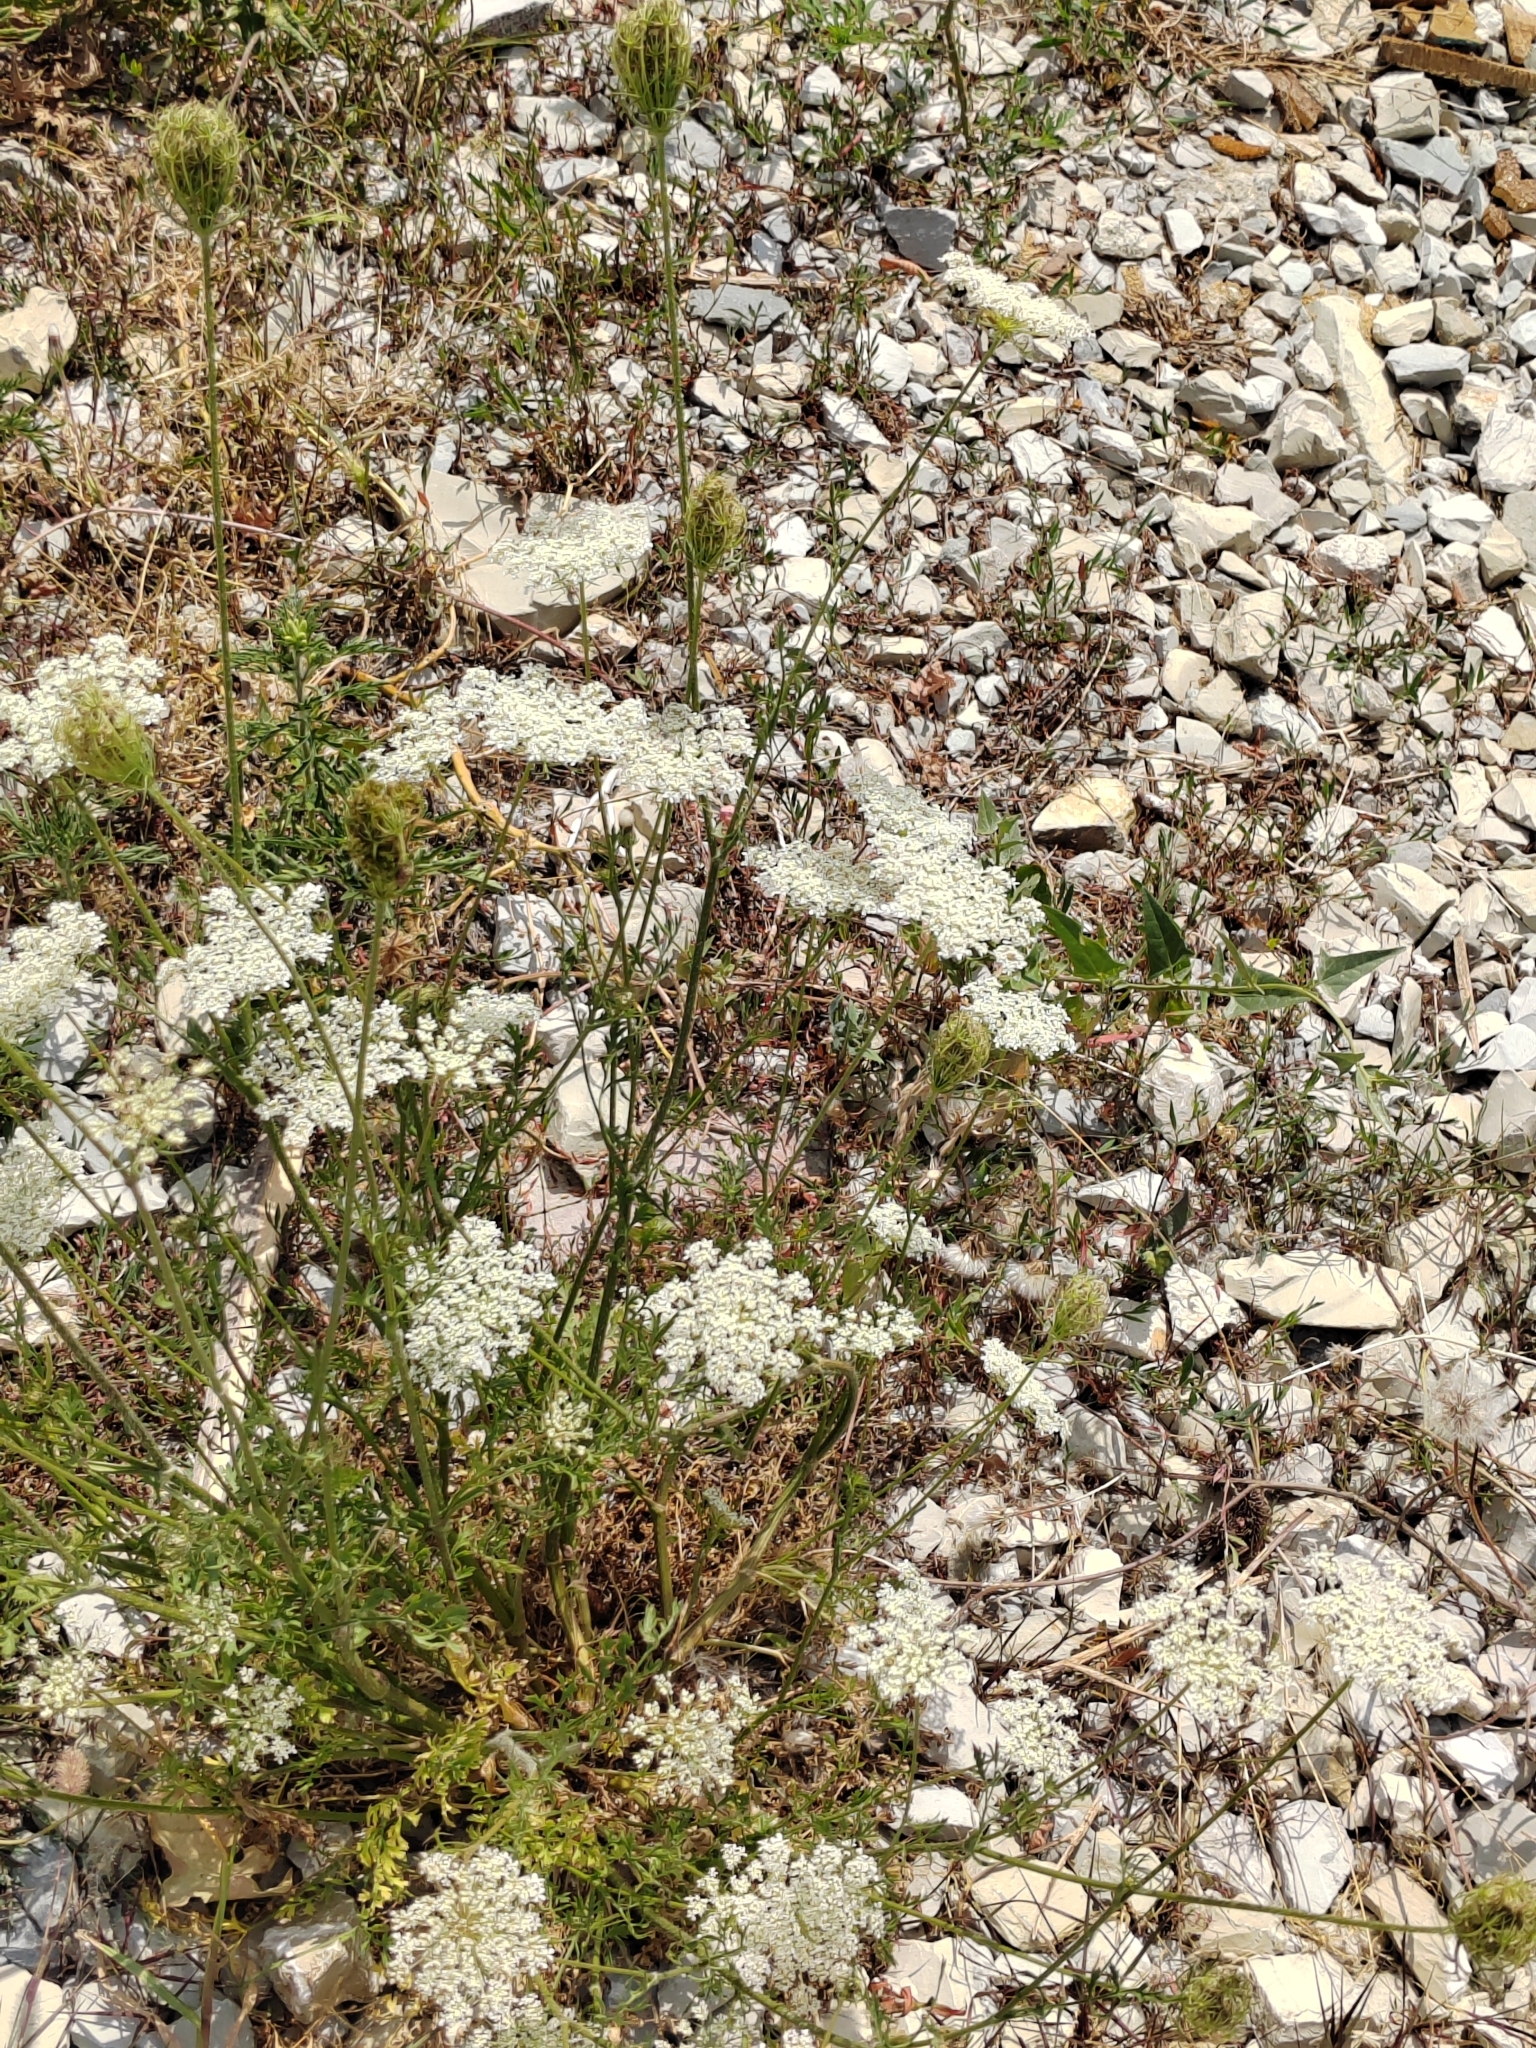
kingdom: Plantae
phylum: Tracheophyta
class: Magnoliopsida
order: Apiales
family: Apiaceae
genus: Daucus
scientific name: Daucus carota
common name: Wild carrot
